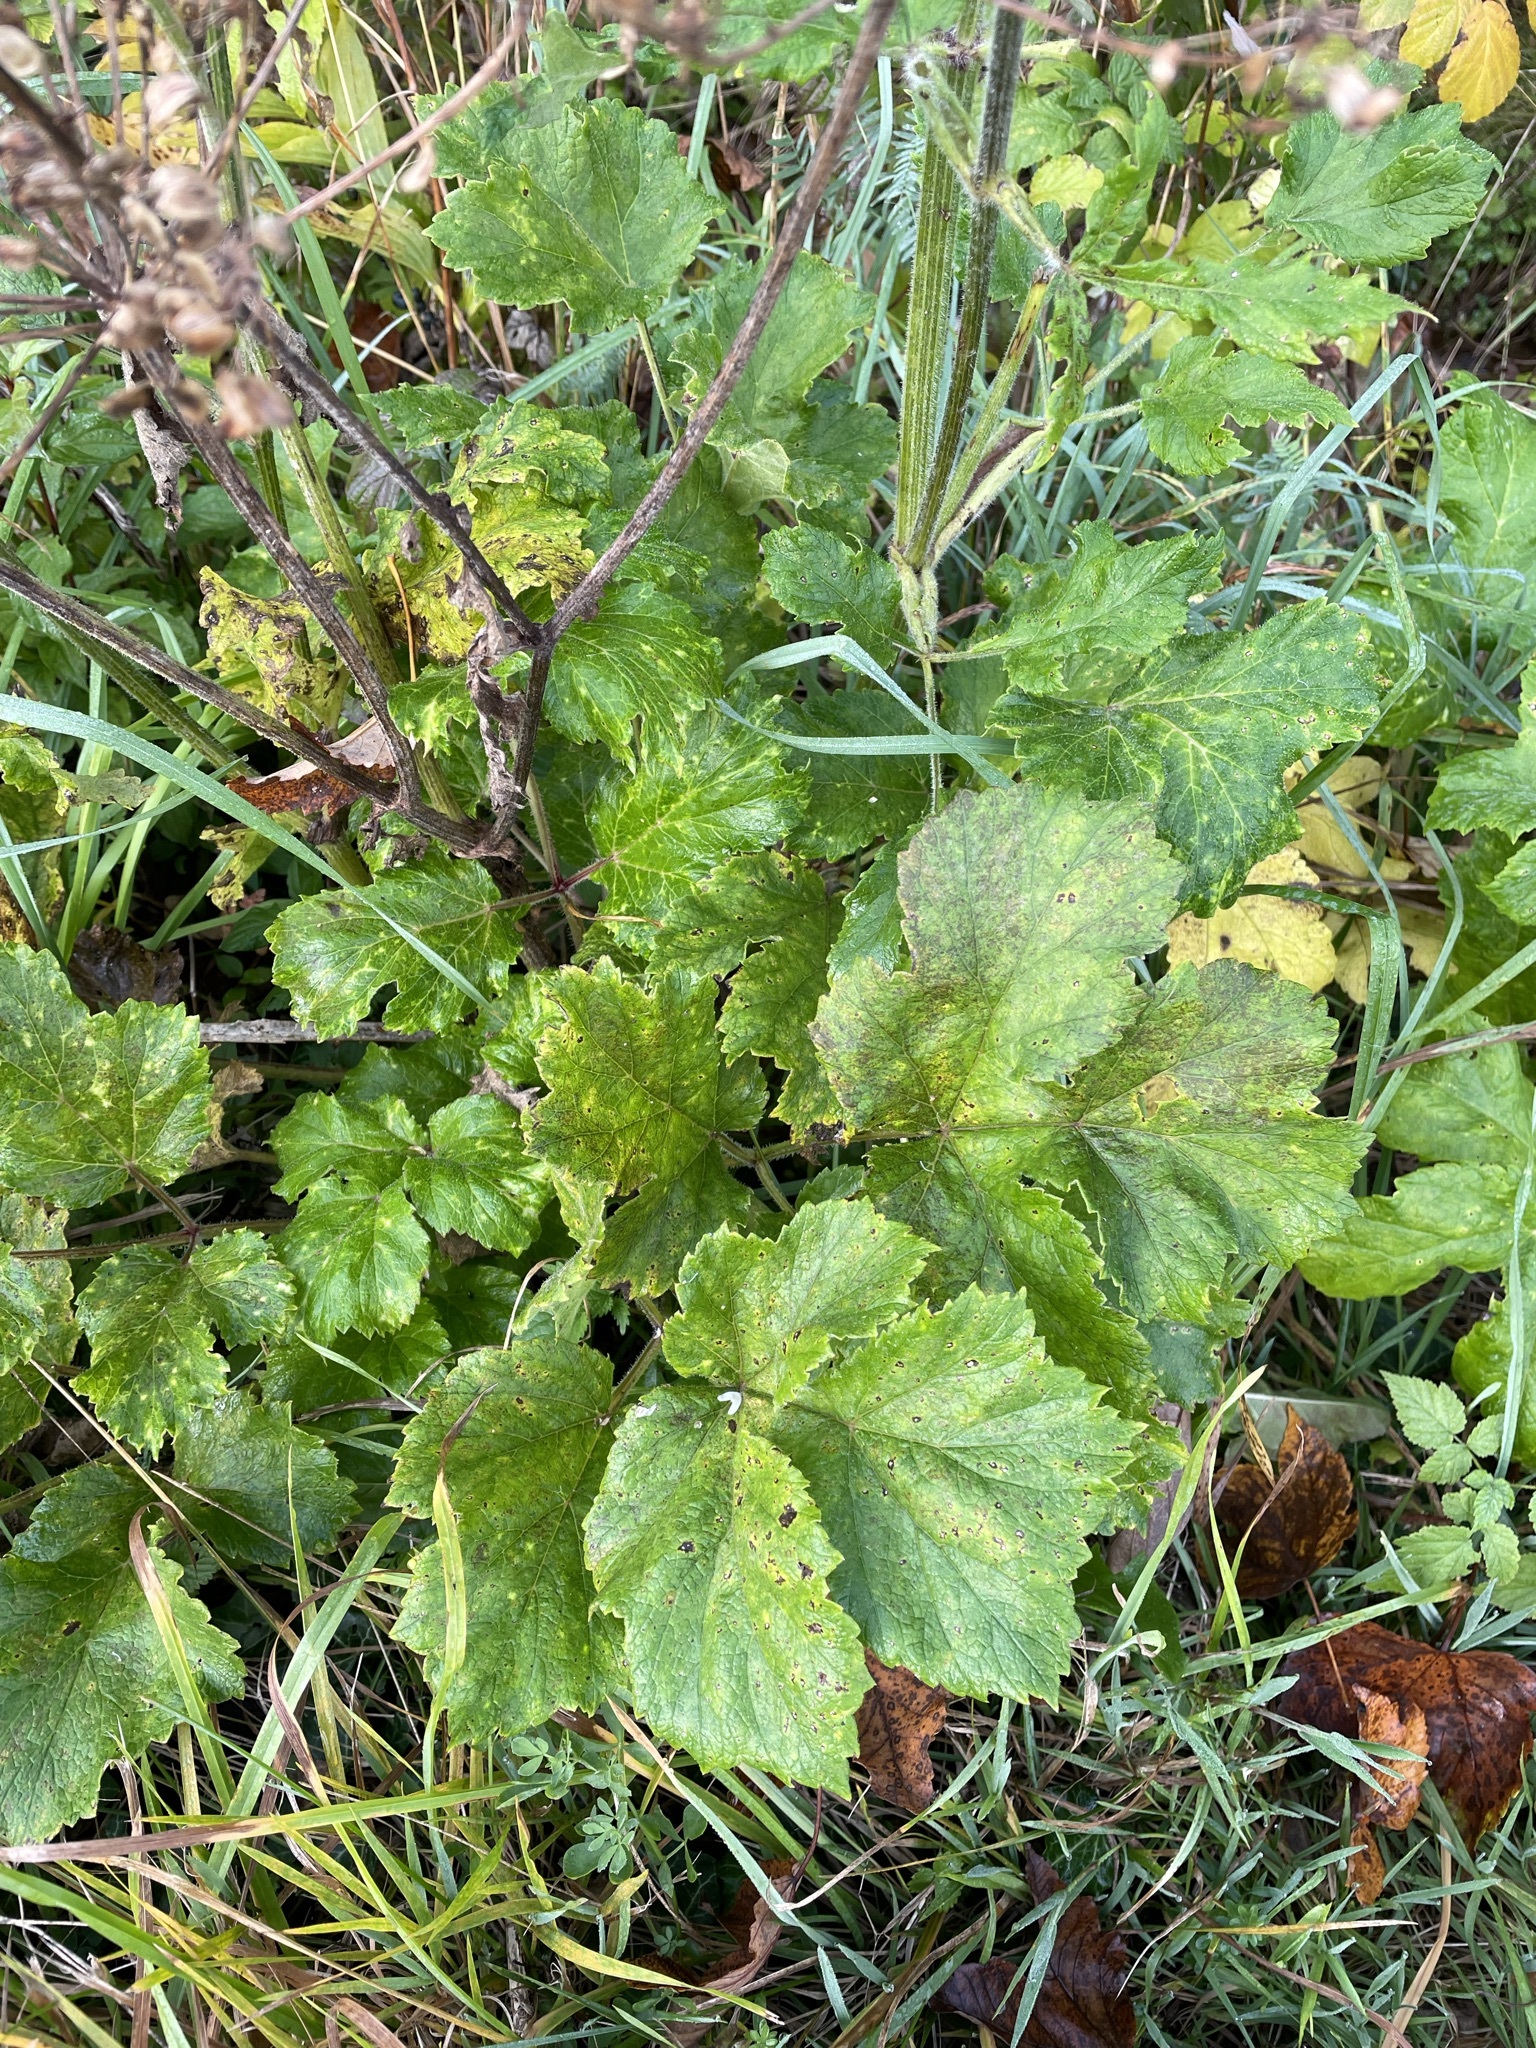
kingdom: Plantae
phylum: Tracheophyta
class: Magnoliopsida
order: Apiales
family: Apiaceae
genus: Heracleum
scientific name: Heracleum sphondylium
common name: Hogweed
